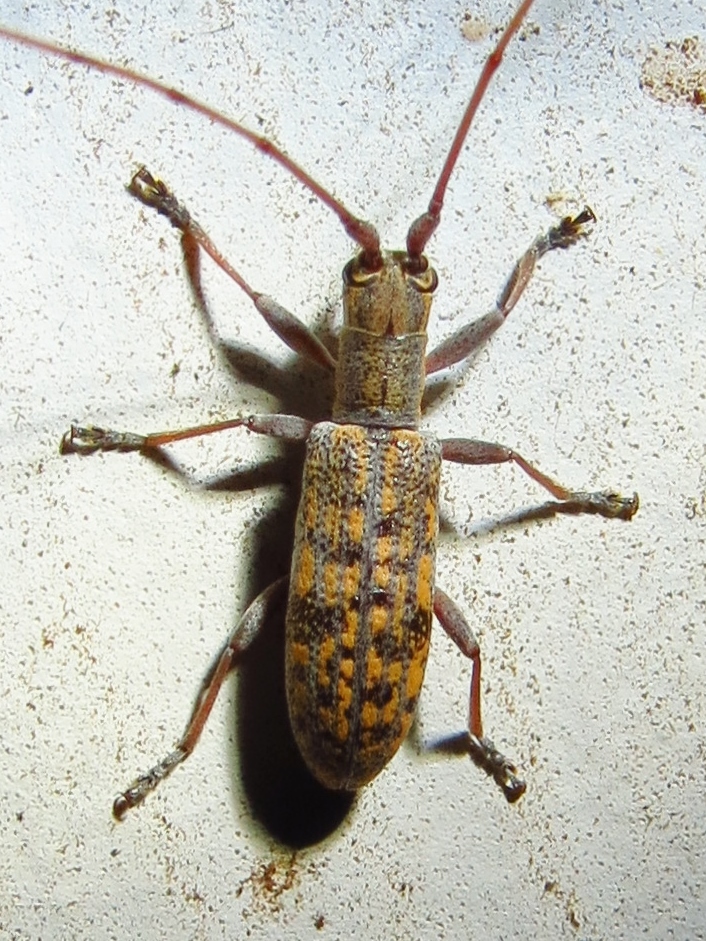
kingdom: Animalia
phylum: Arthropoda
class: Insecta
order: Coleoptera
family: Cerambycidae
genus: Dorcaschema
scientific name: Dorcaschema alternatum
